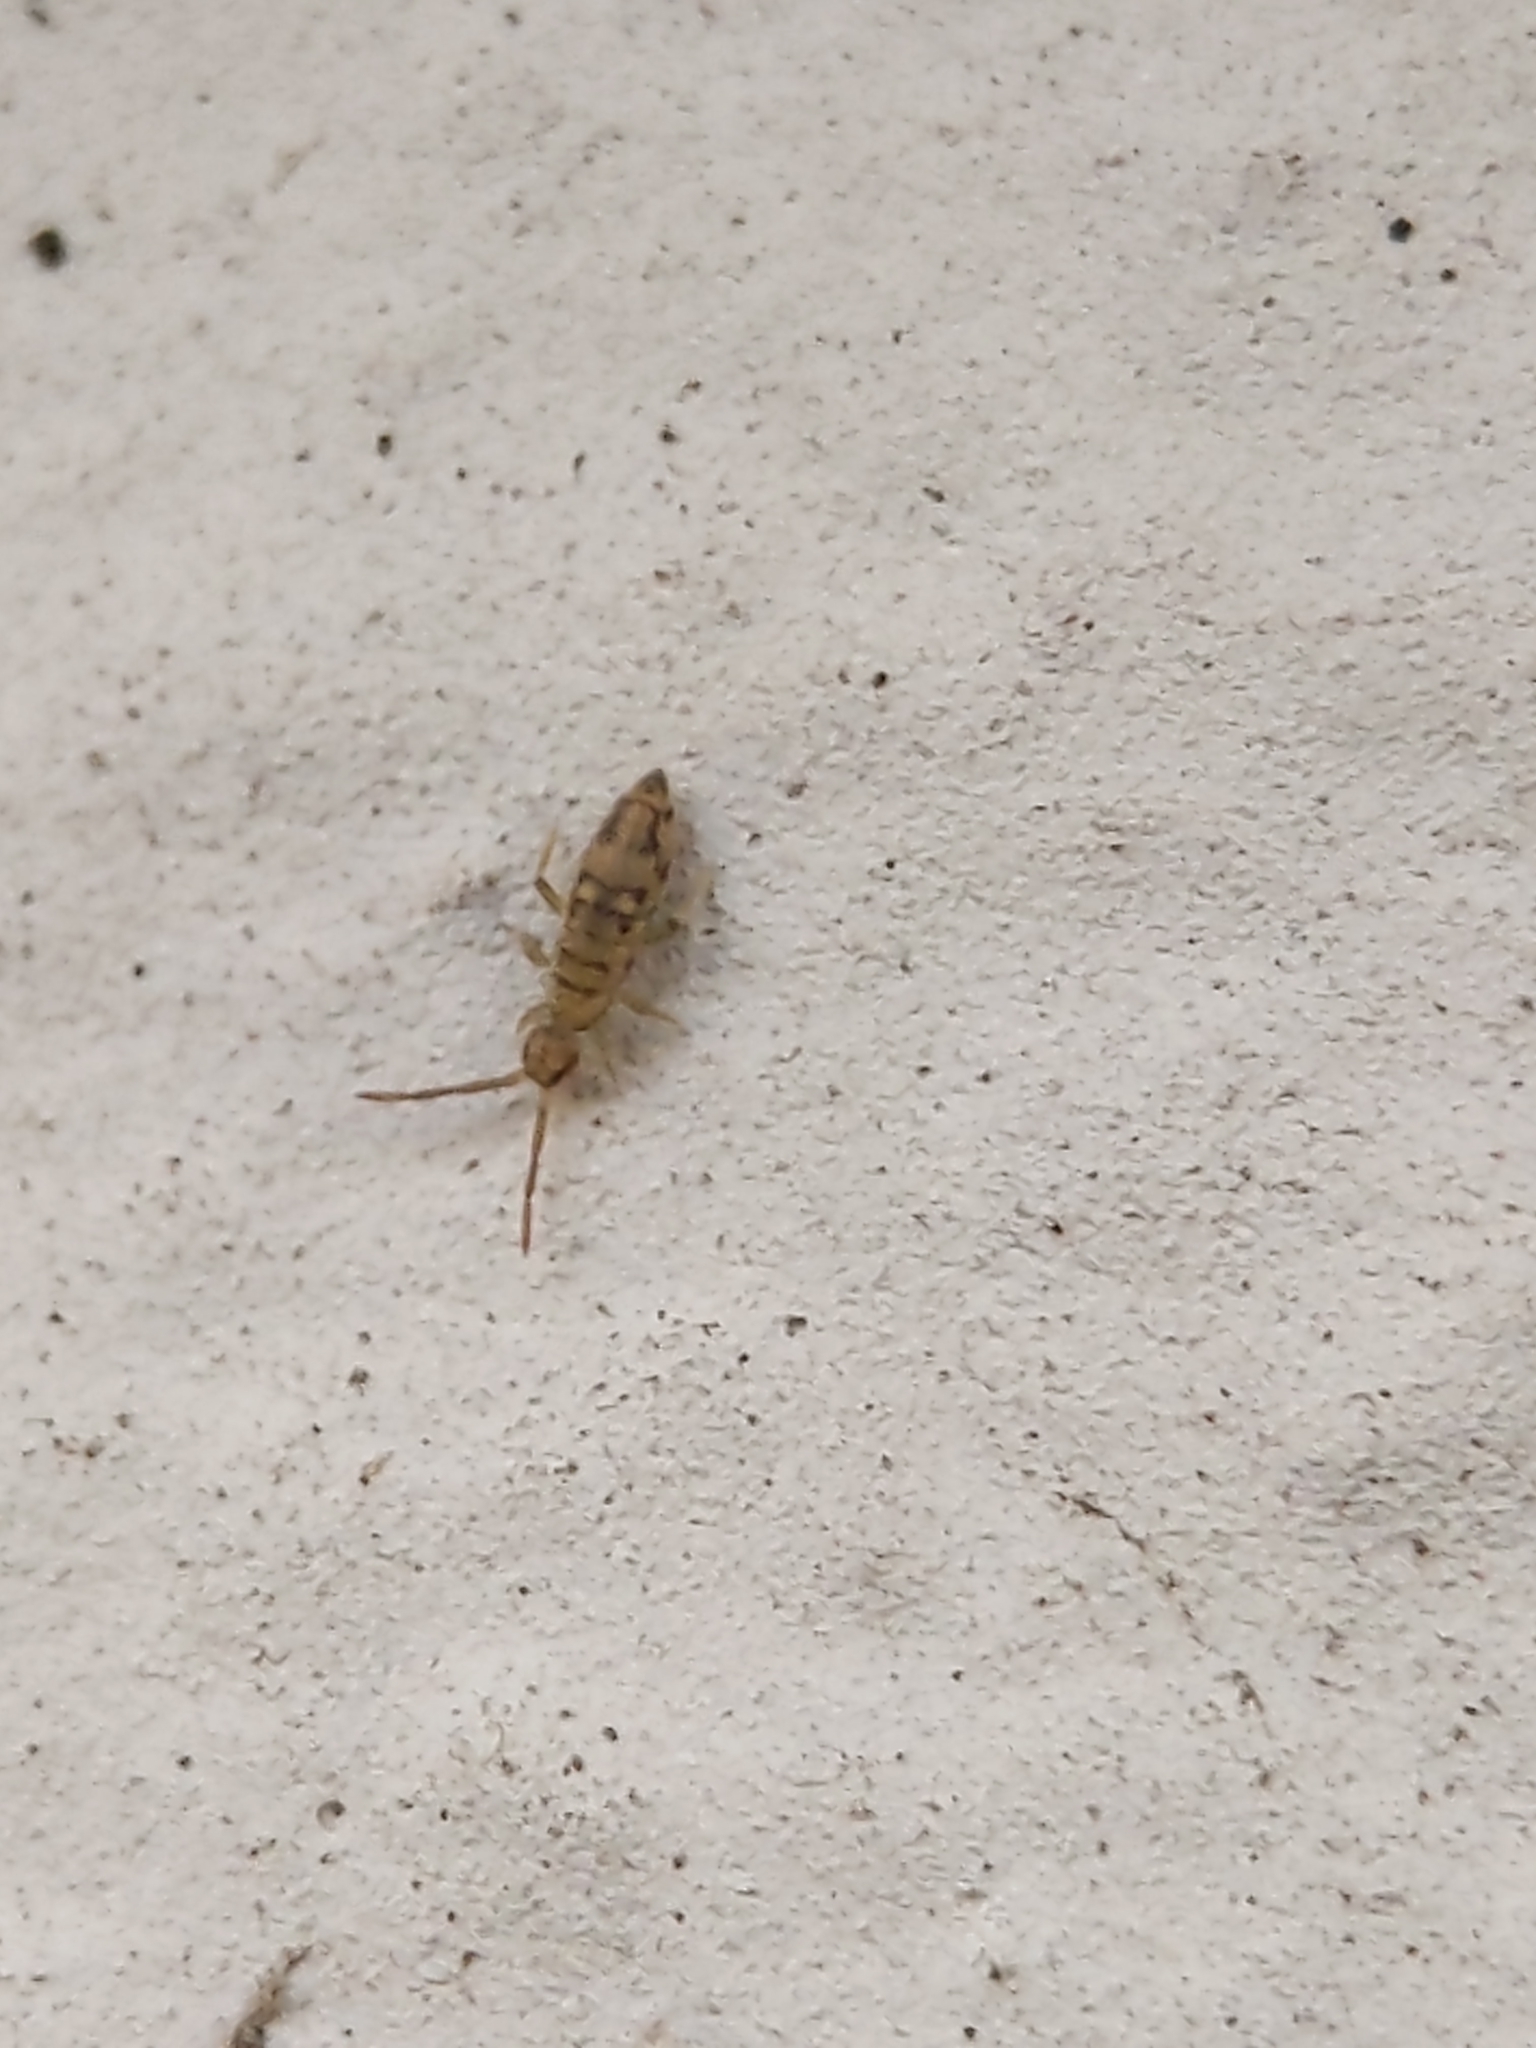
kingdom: Animalia
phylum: Arthropoda
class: Collembola
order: Entomobryomorpha
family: Entomobryidae
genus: Entomobrya
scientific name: Entomobrya nivalis
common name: Cosmopolitan springtail
